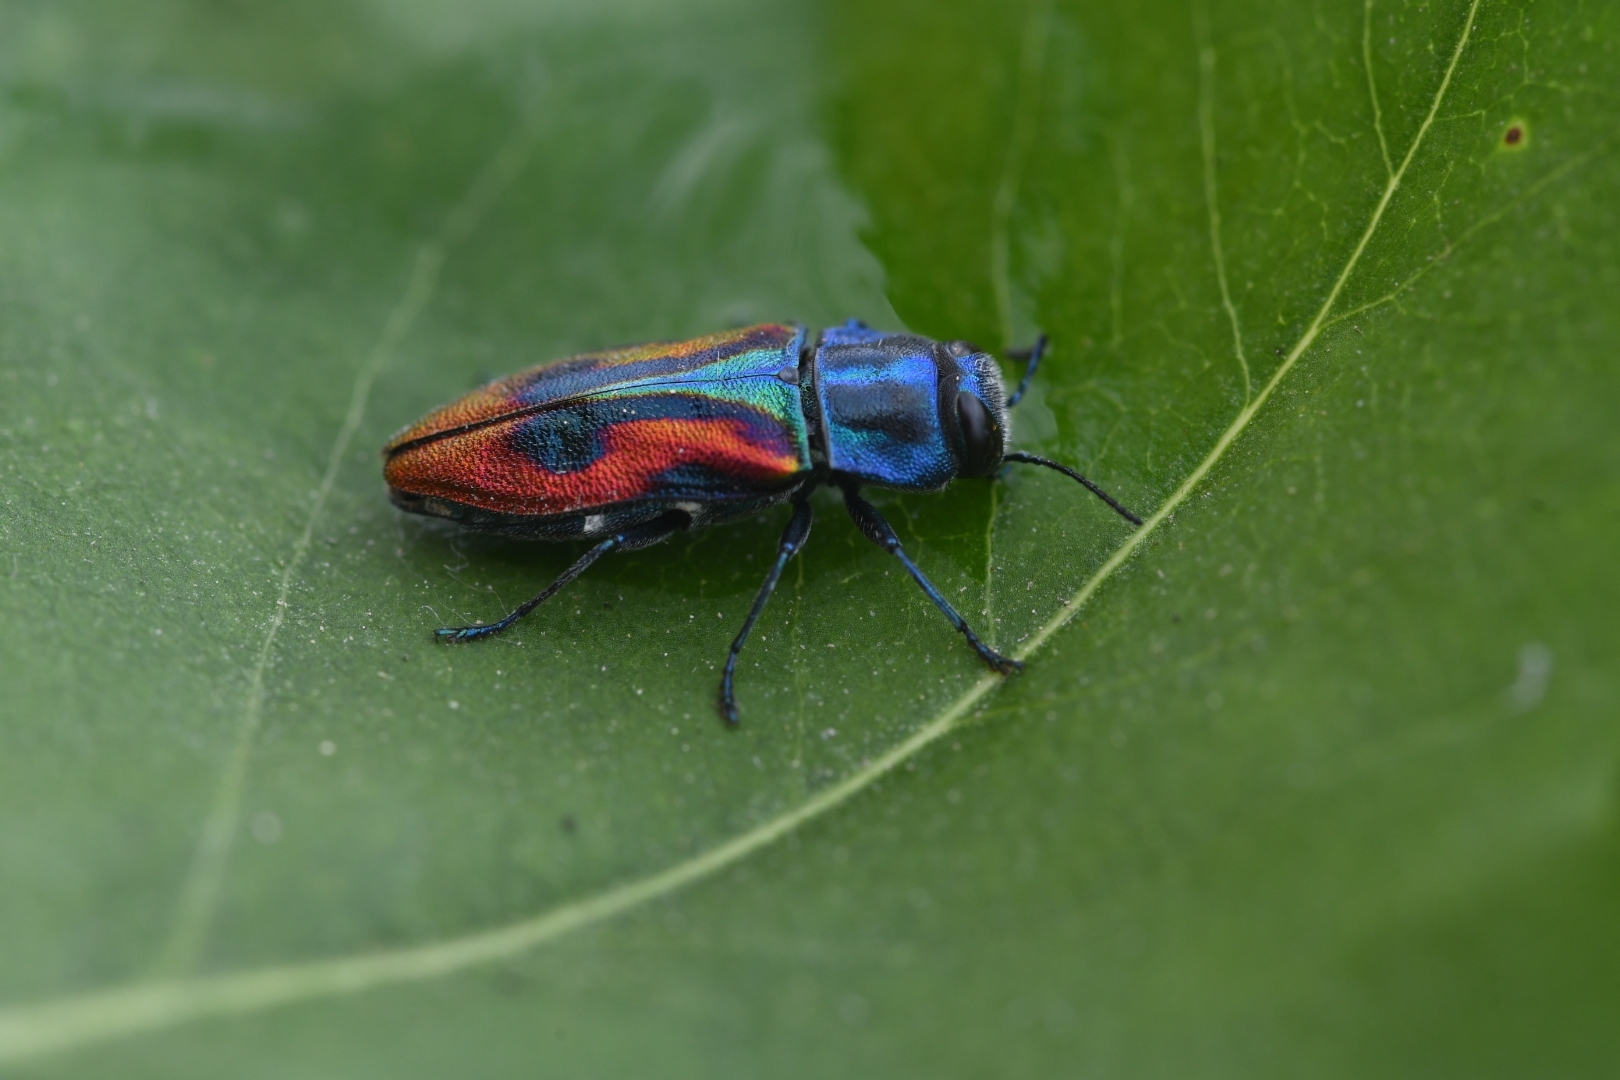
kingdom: Animalia
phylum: Arthropoda
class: Insecta
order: Coleoptera
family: Buprestidae
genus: Anthaxia
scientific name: Anthaxia candens
